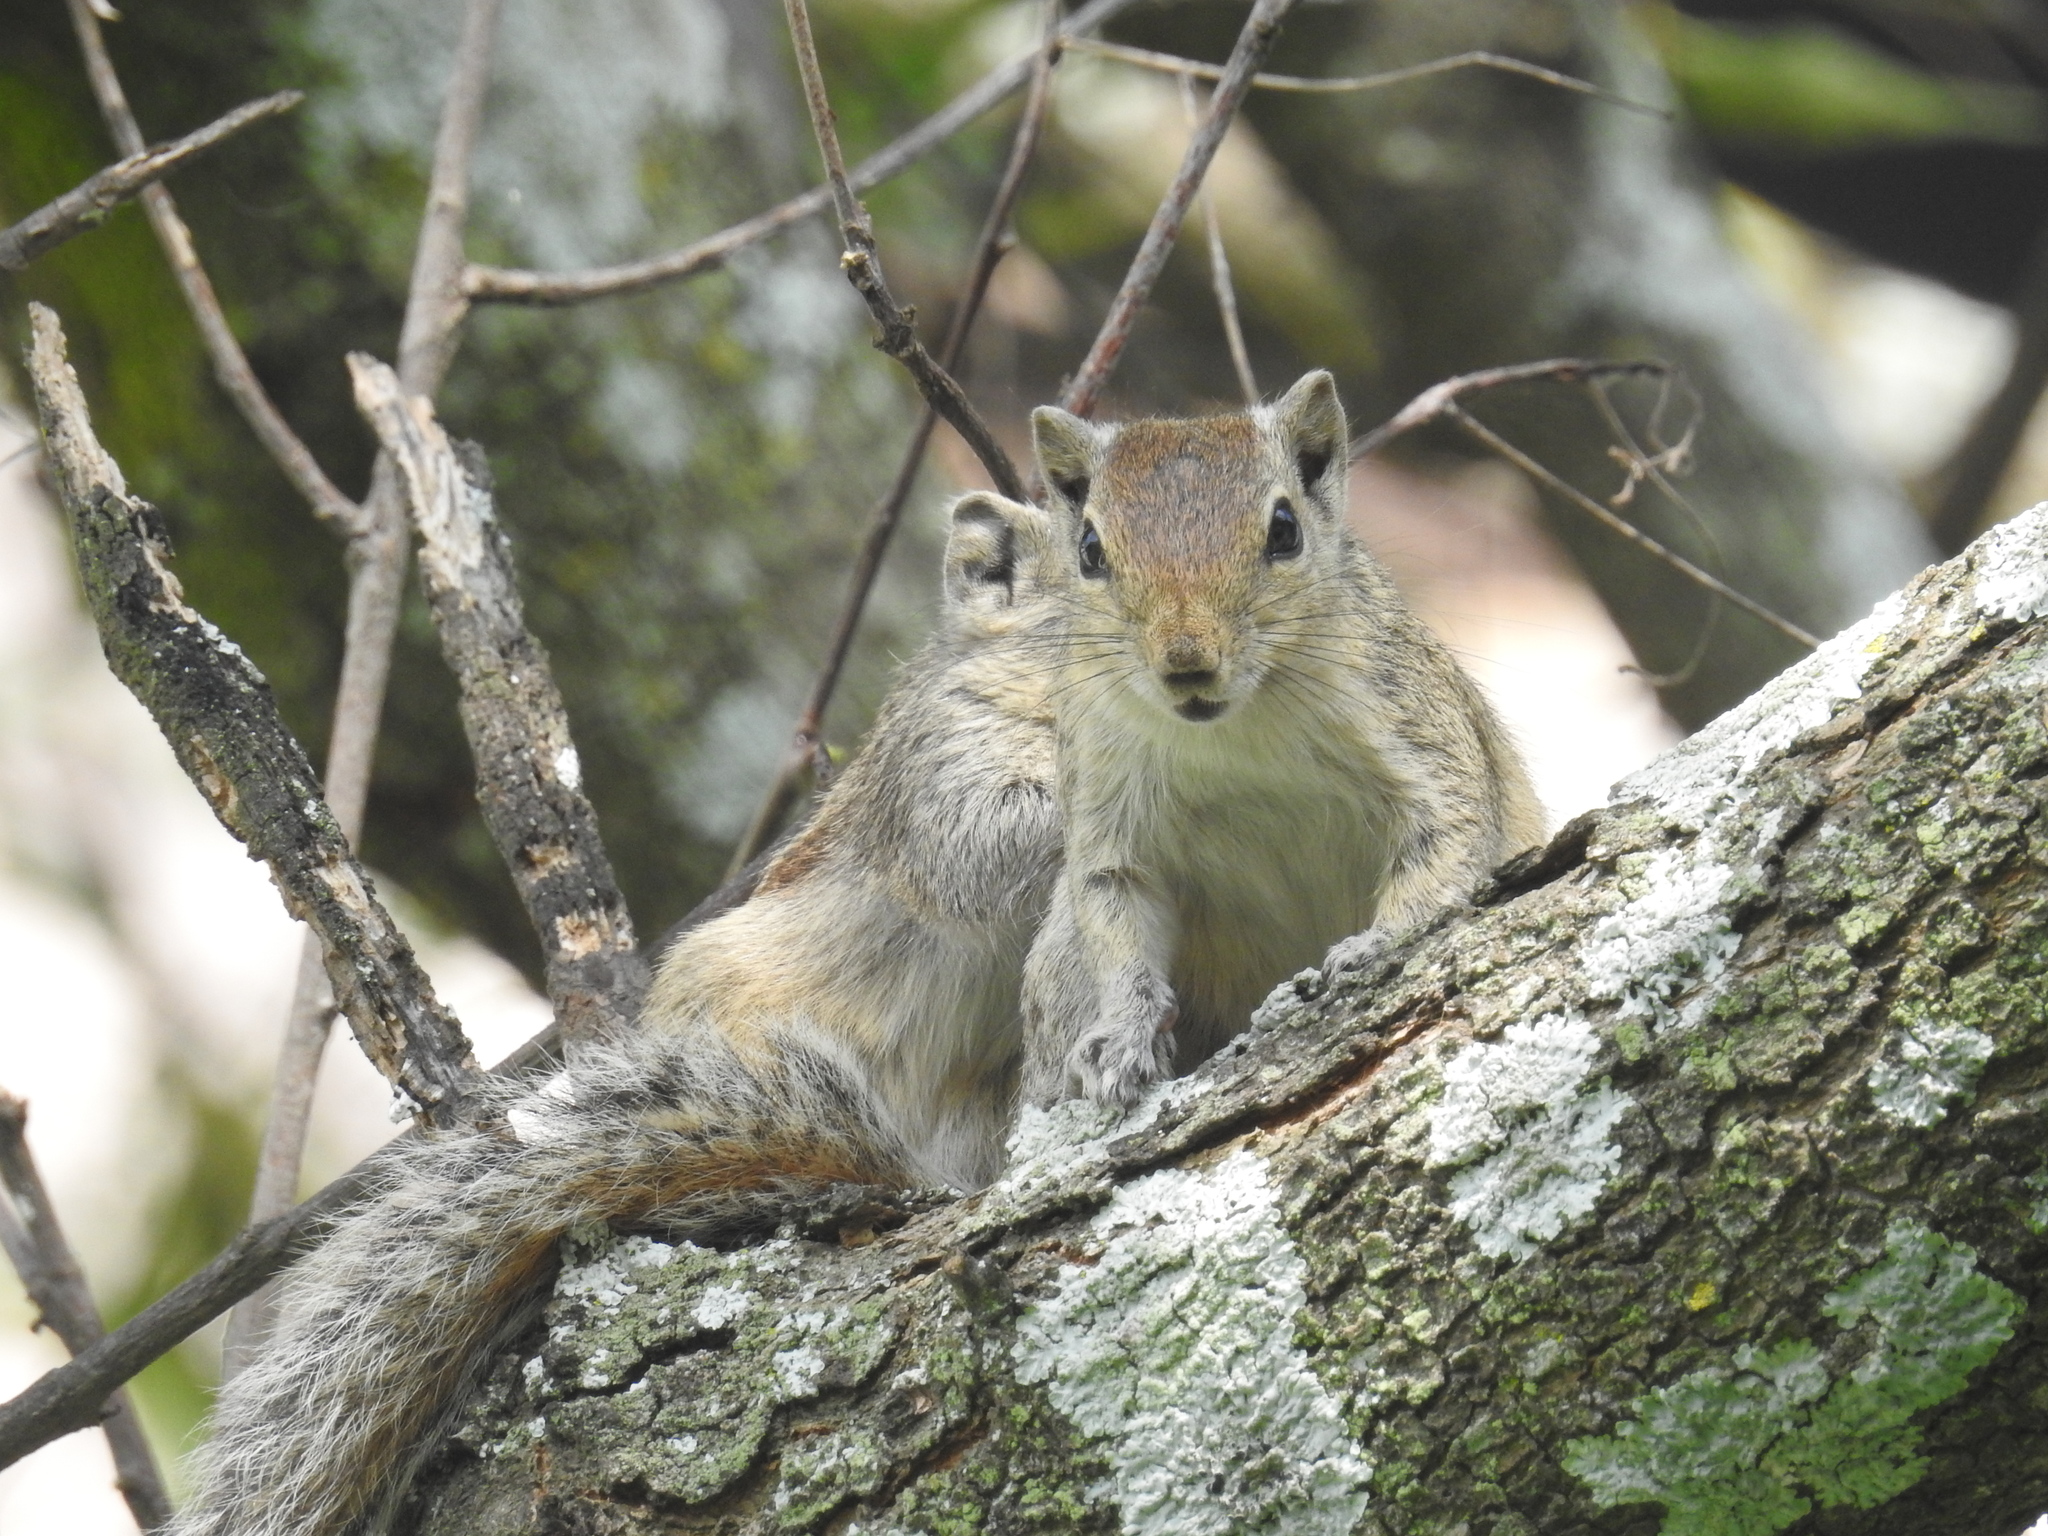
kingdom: Animalia
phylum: Chordata
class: Mammalia
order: Rodentia
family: Sciuridae
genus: Funambulus
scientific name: Funambulus palmarum
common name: Indian palm squirrel
